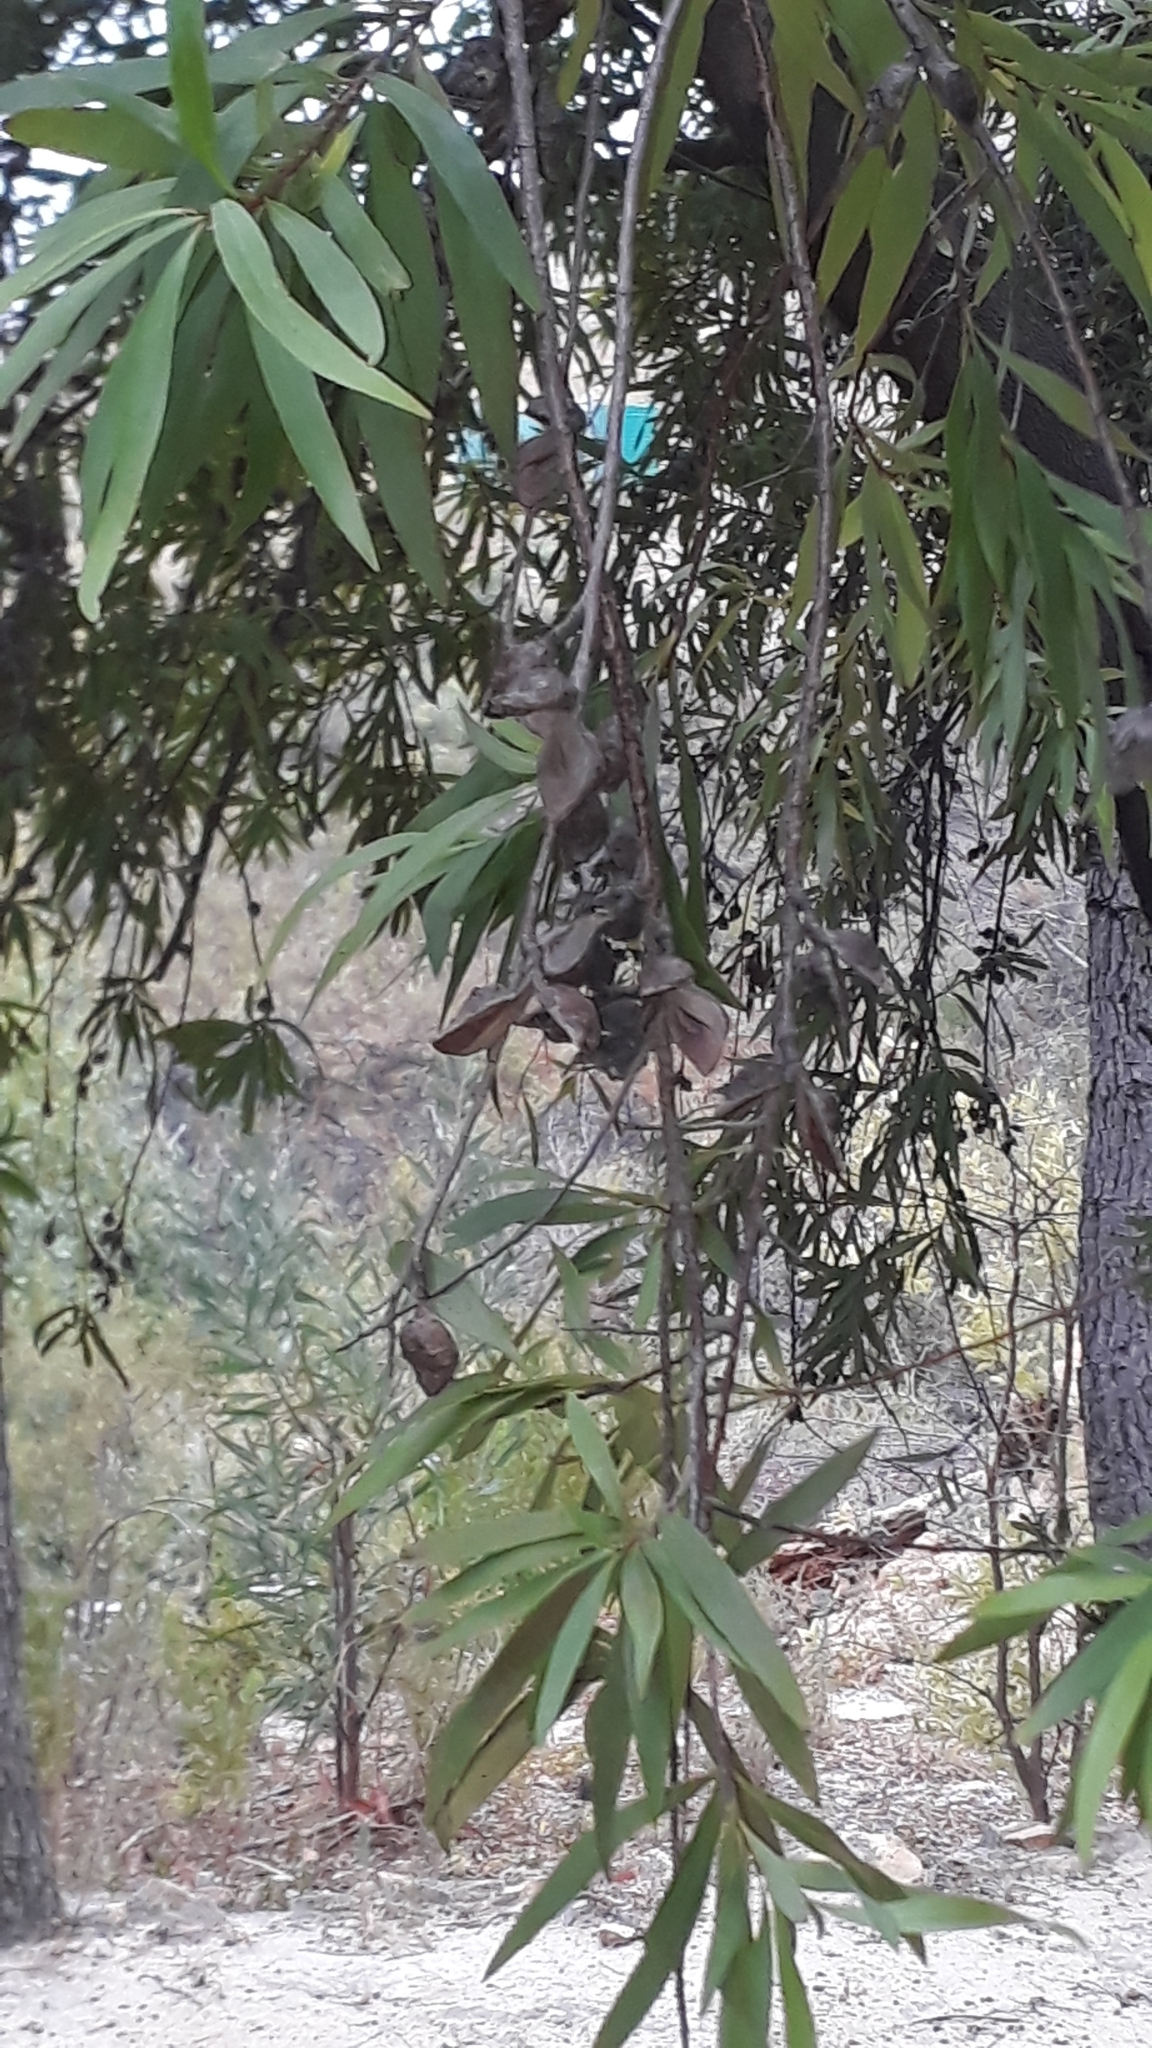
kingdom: Plantae
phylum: Tracheophyta
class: Magnoliopsida
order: Proteales
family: Proteaceae
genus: Hakea
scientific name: Hakea salicifolia
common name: Willow hakea
